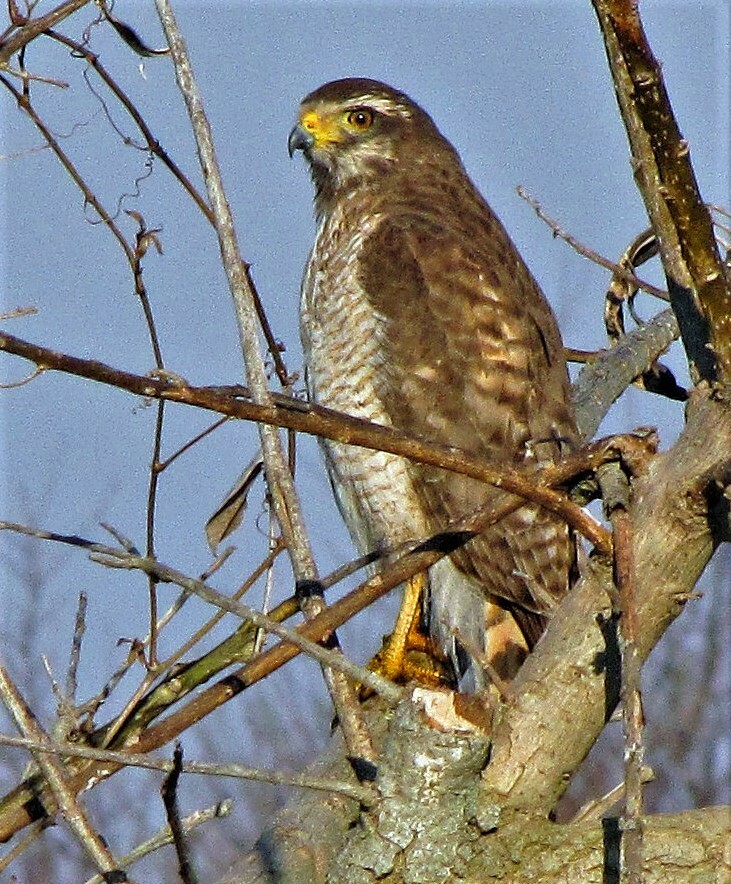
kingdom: Animalia
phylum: Chordata
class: Aves
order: Accipitriformes
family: Accipitridae
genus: Rupornis
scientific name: Rupornis magnirostris
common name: Roadside hawk
